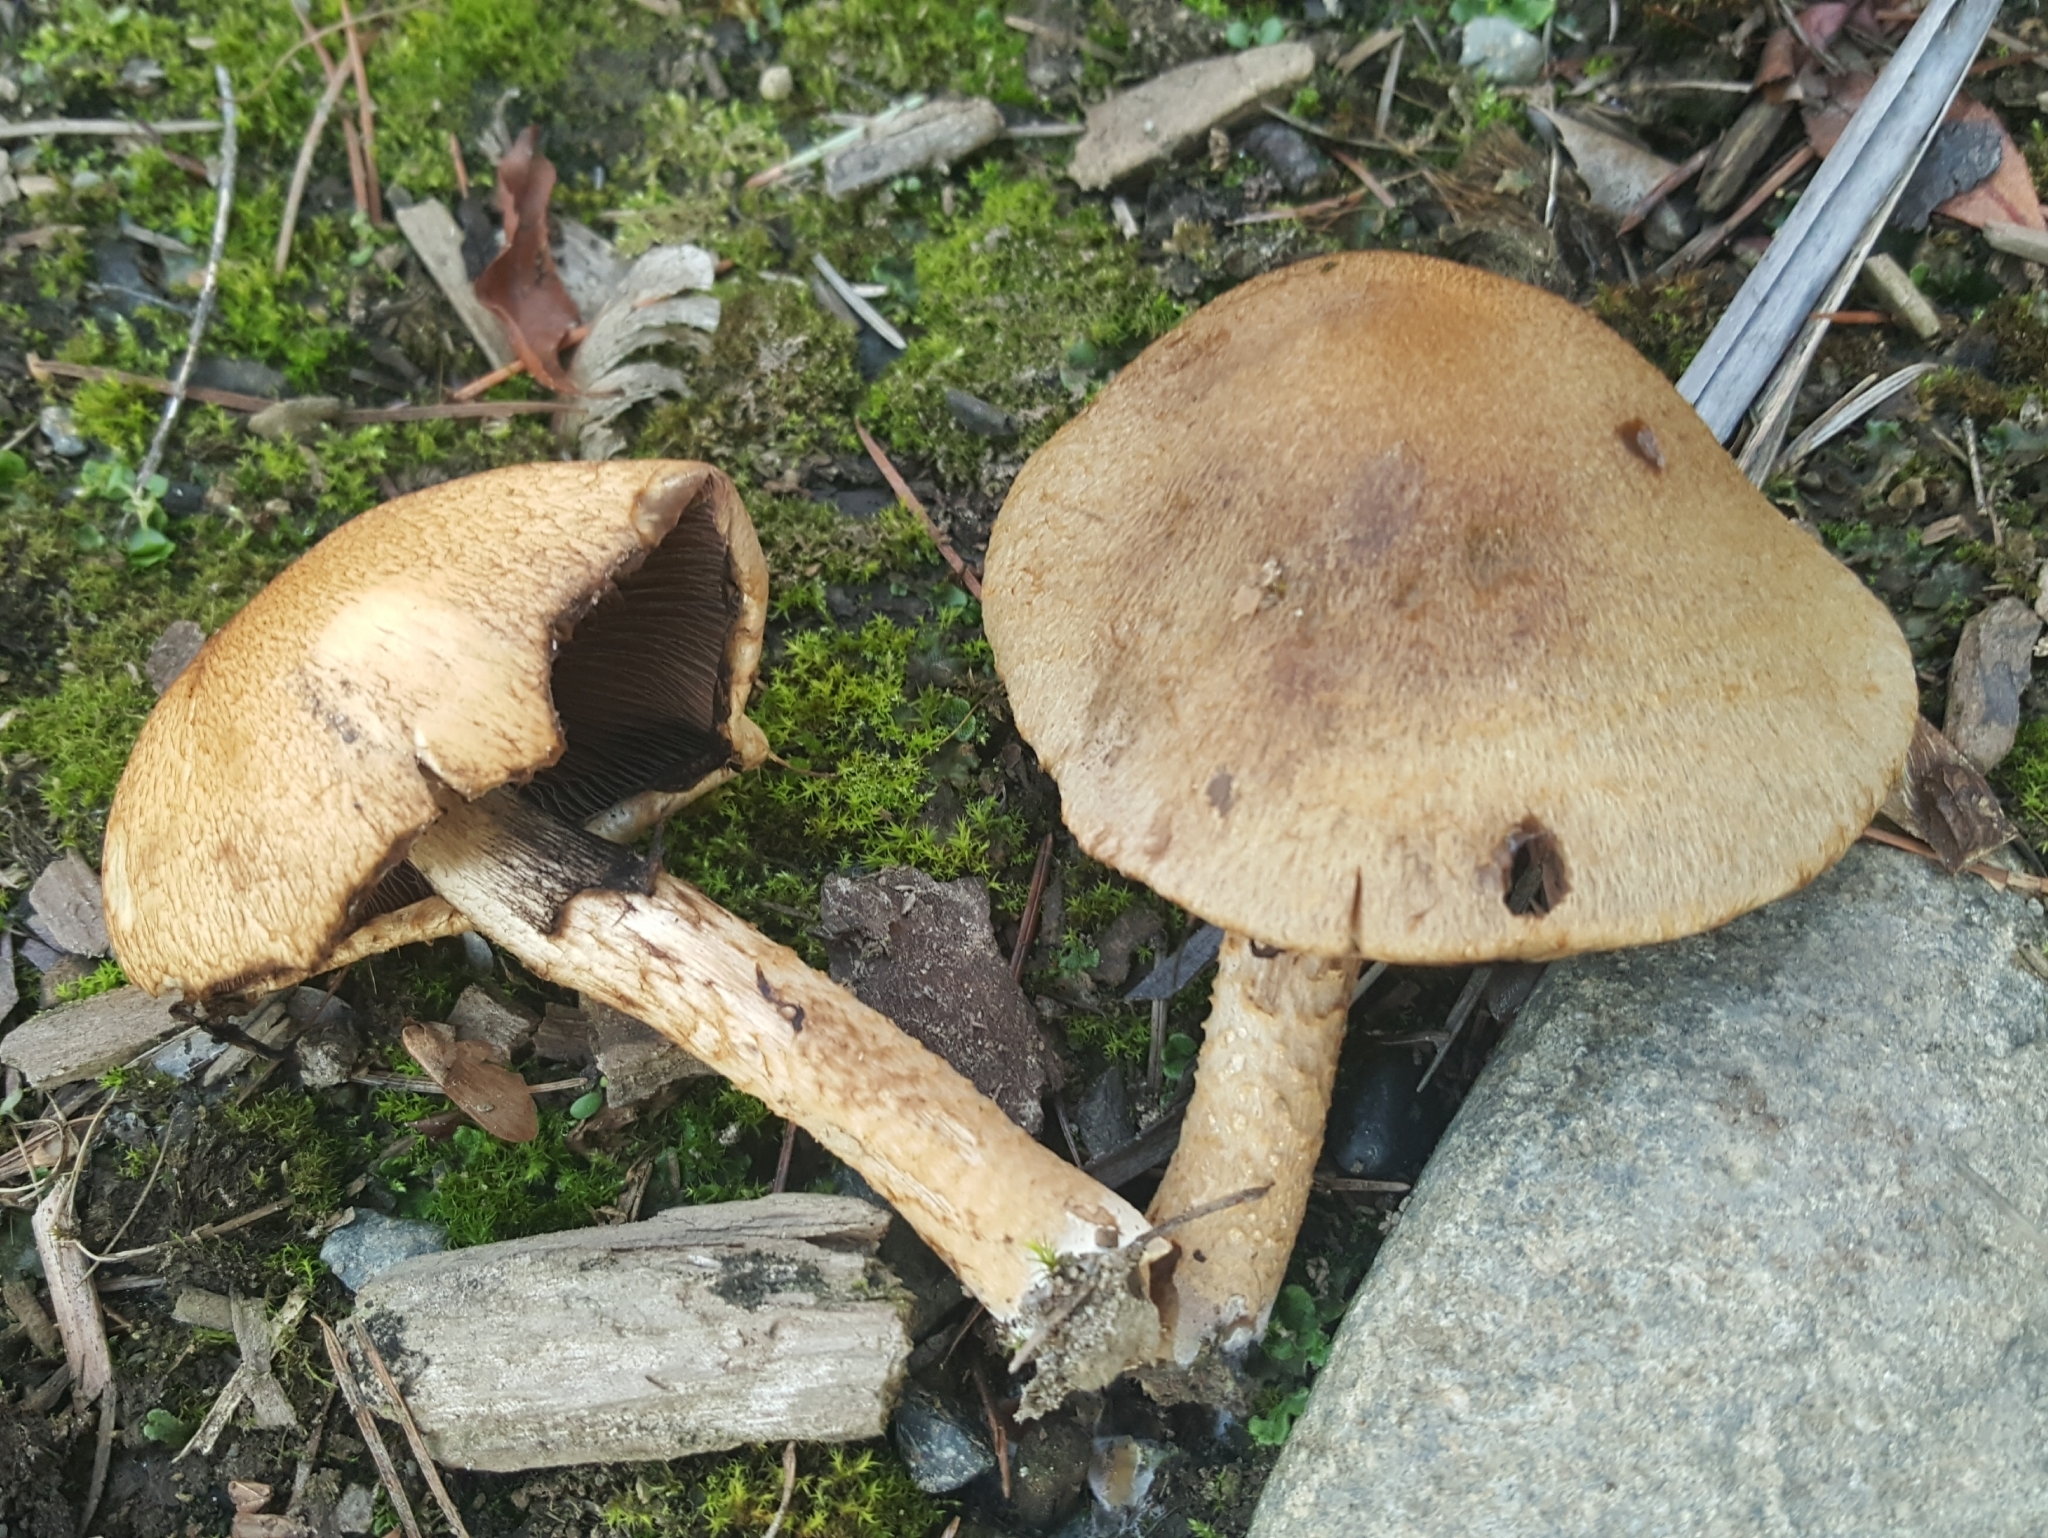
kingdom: Fungi
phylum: Basidiomycota
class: Agaricomycetes
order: Agaricales
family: Psathyrellaceae
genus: Lacrymaria
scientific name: Lacrymaria lacrymabunda
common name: Weeping widow
